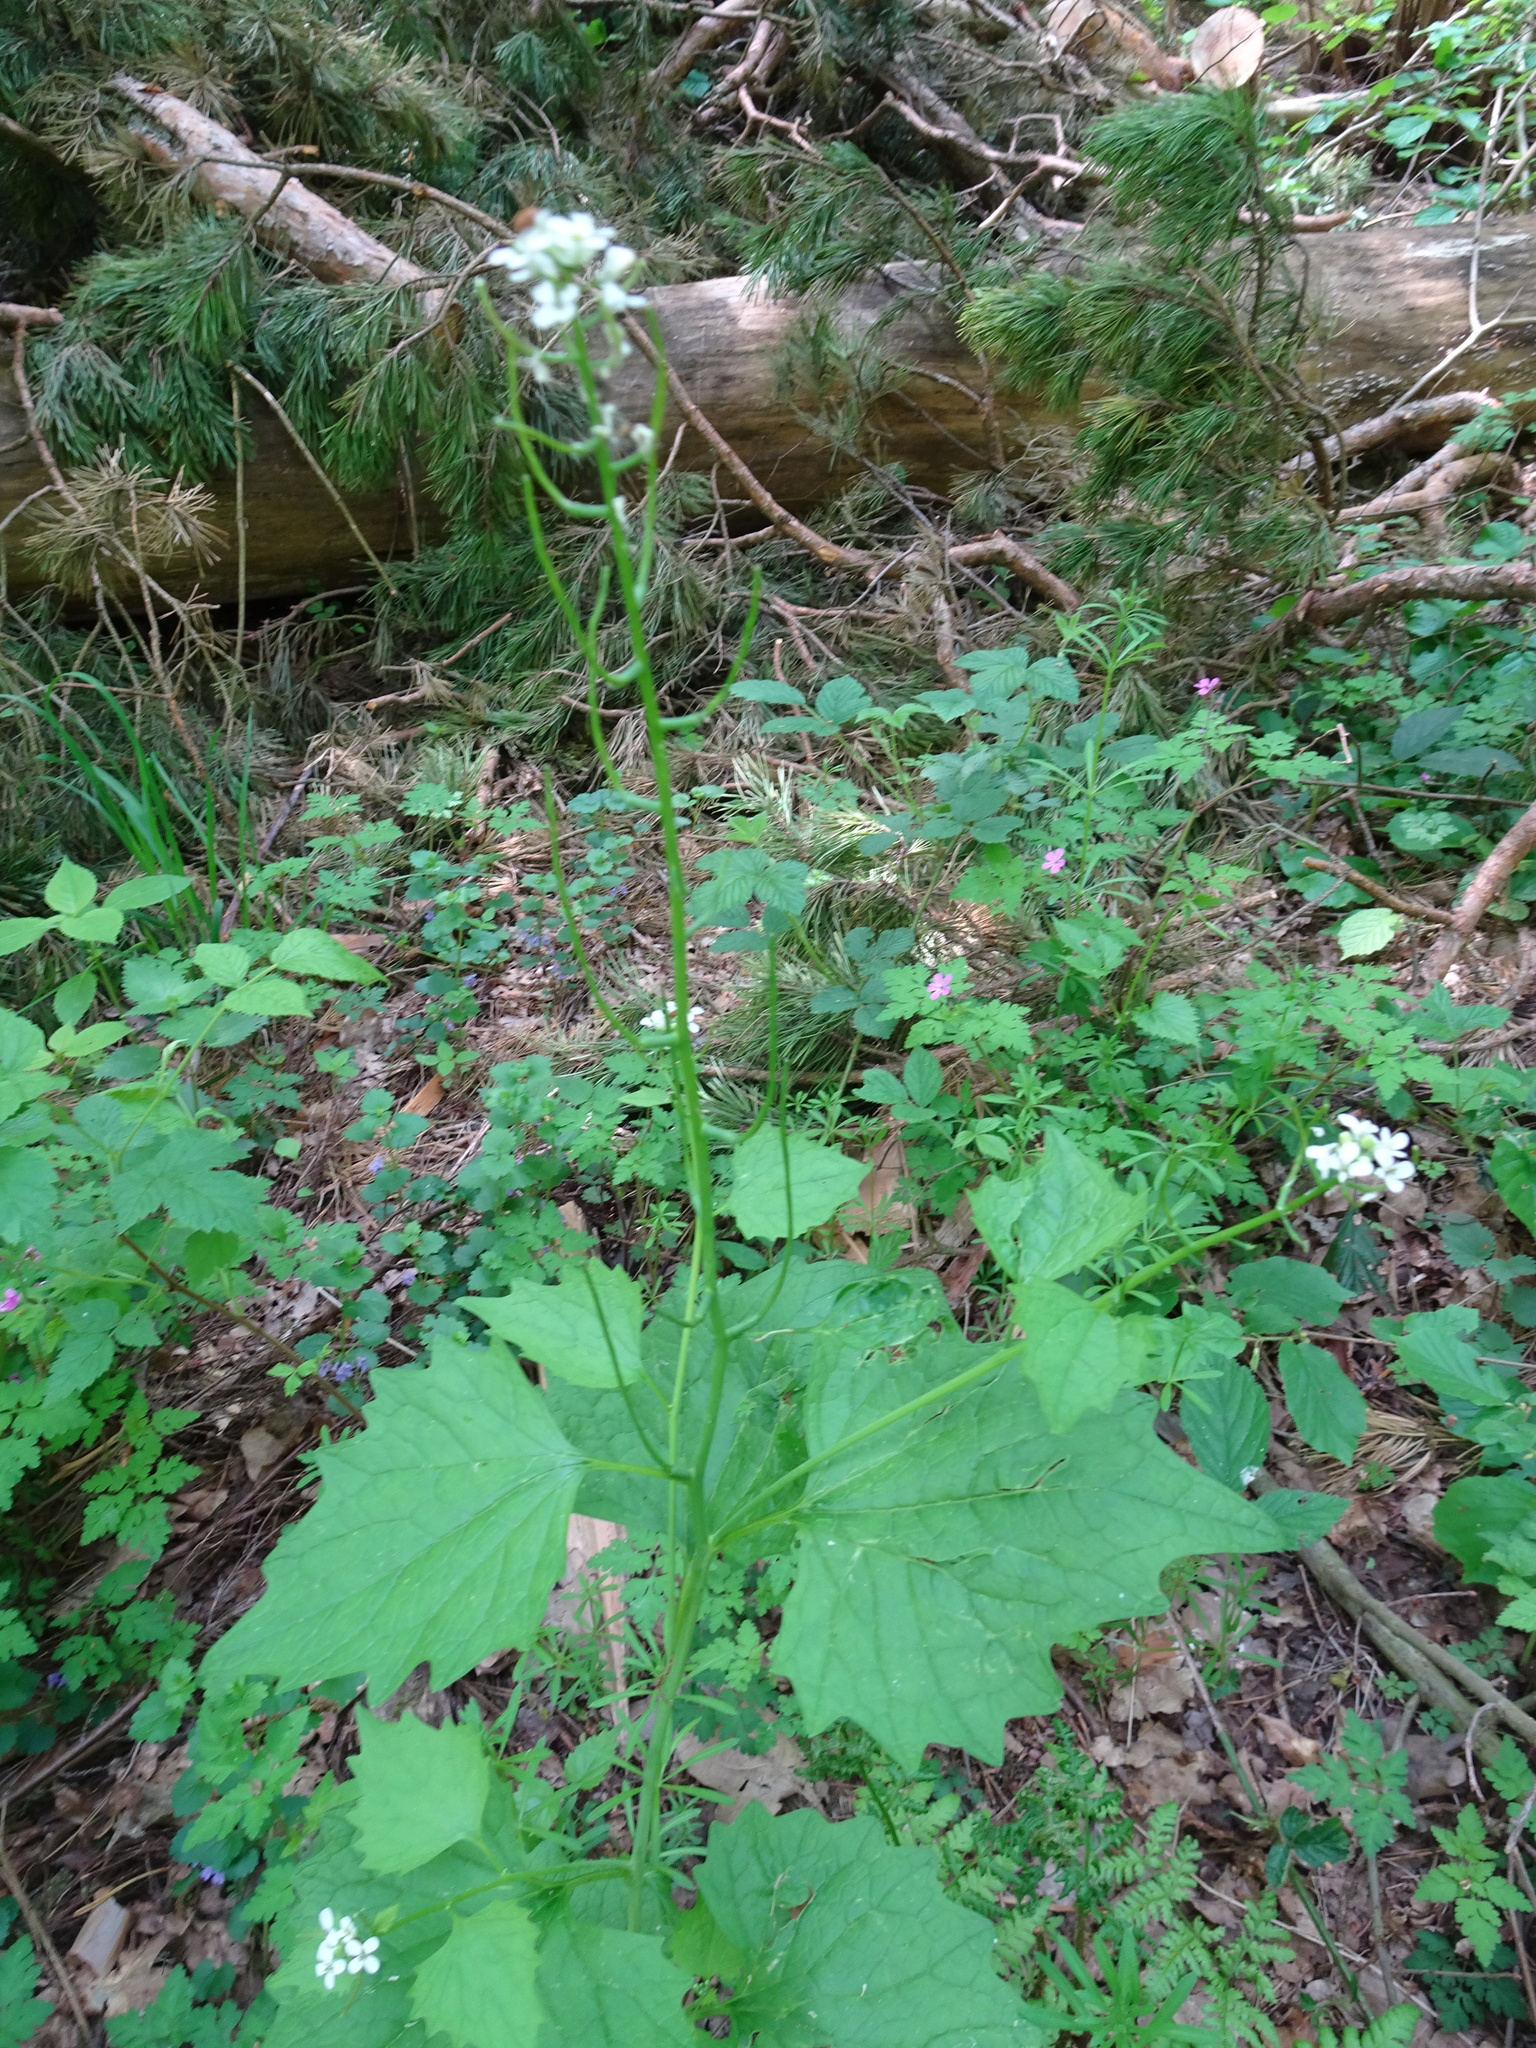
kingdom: Plantae
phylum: Tracheophyta
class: Magnoliopsida
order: Brassicales
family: Brassicaceae
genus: Alliaria
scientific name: Alliaria petiolata
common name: Garlic mustard
